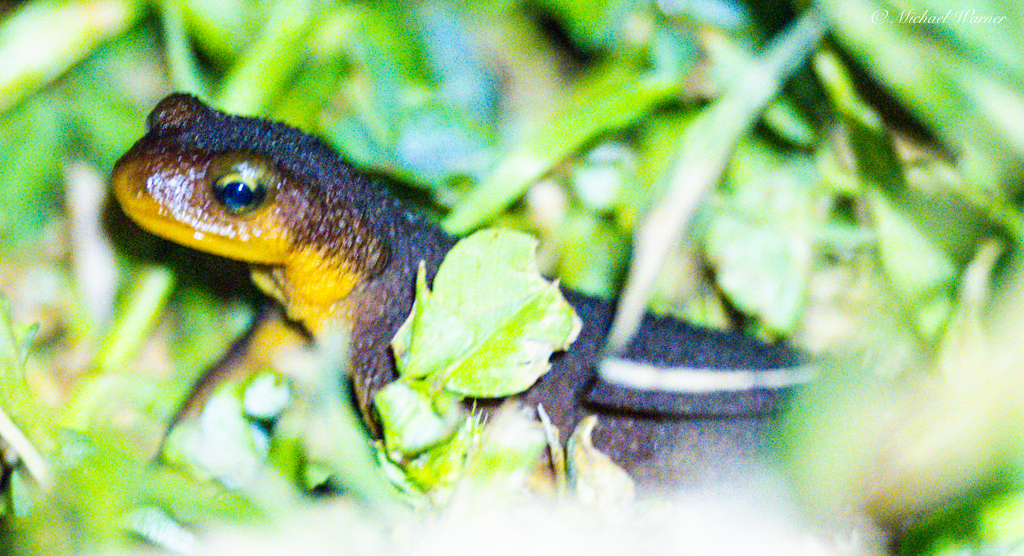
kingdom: Animalia
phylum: Chordata
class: Amphibia
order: Caudata
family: Salamandridae
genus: Taricha
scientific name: Taricha torosa
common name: California newt
